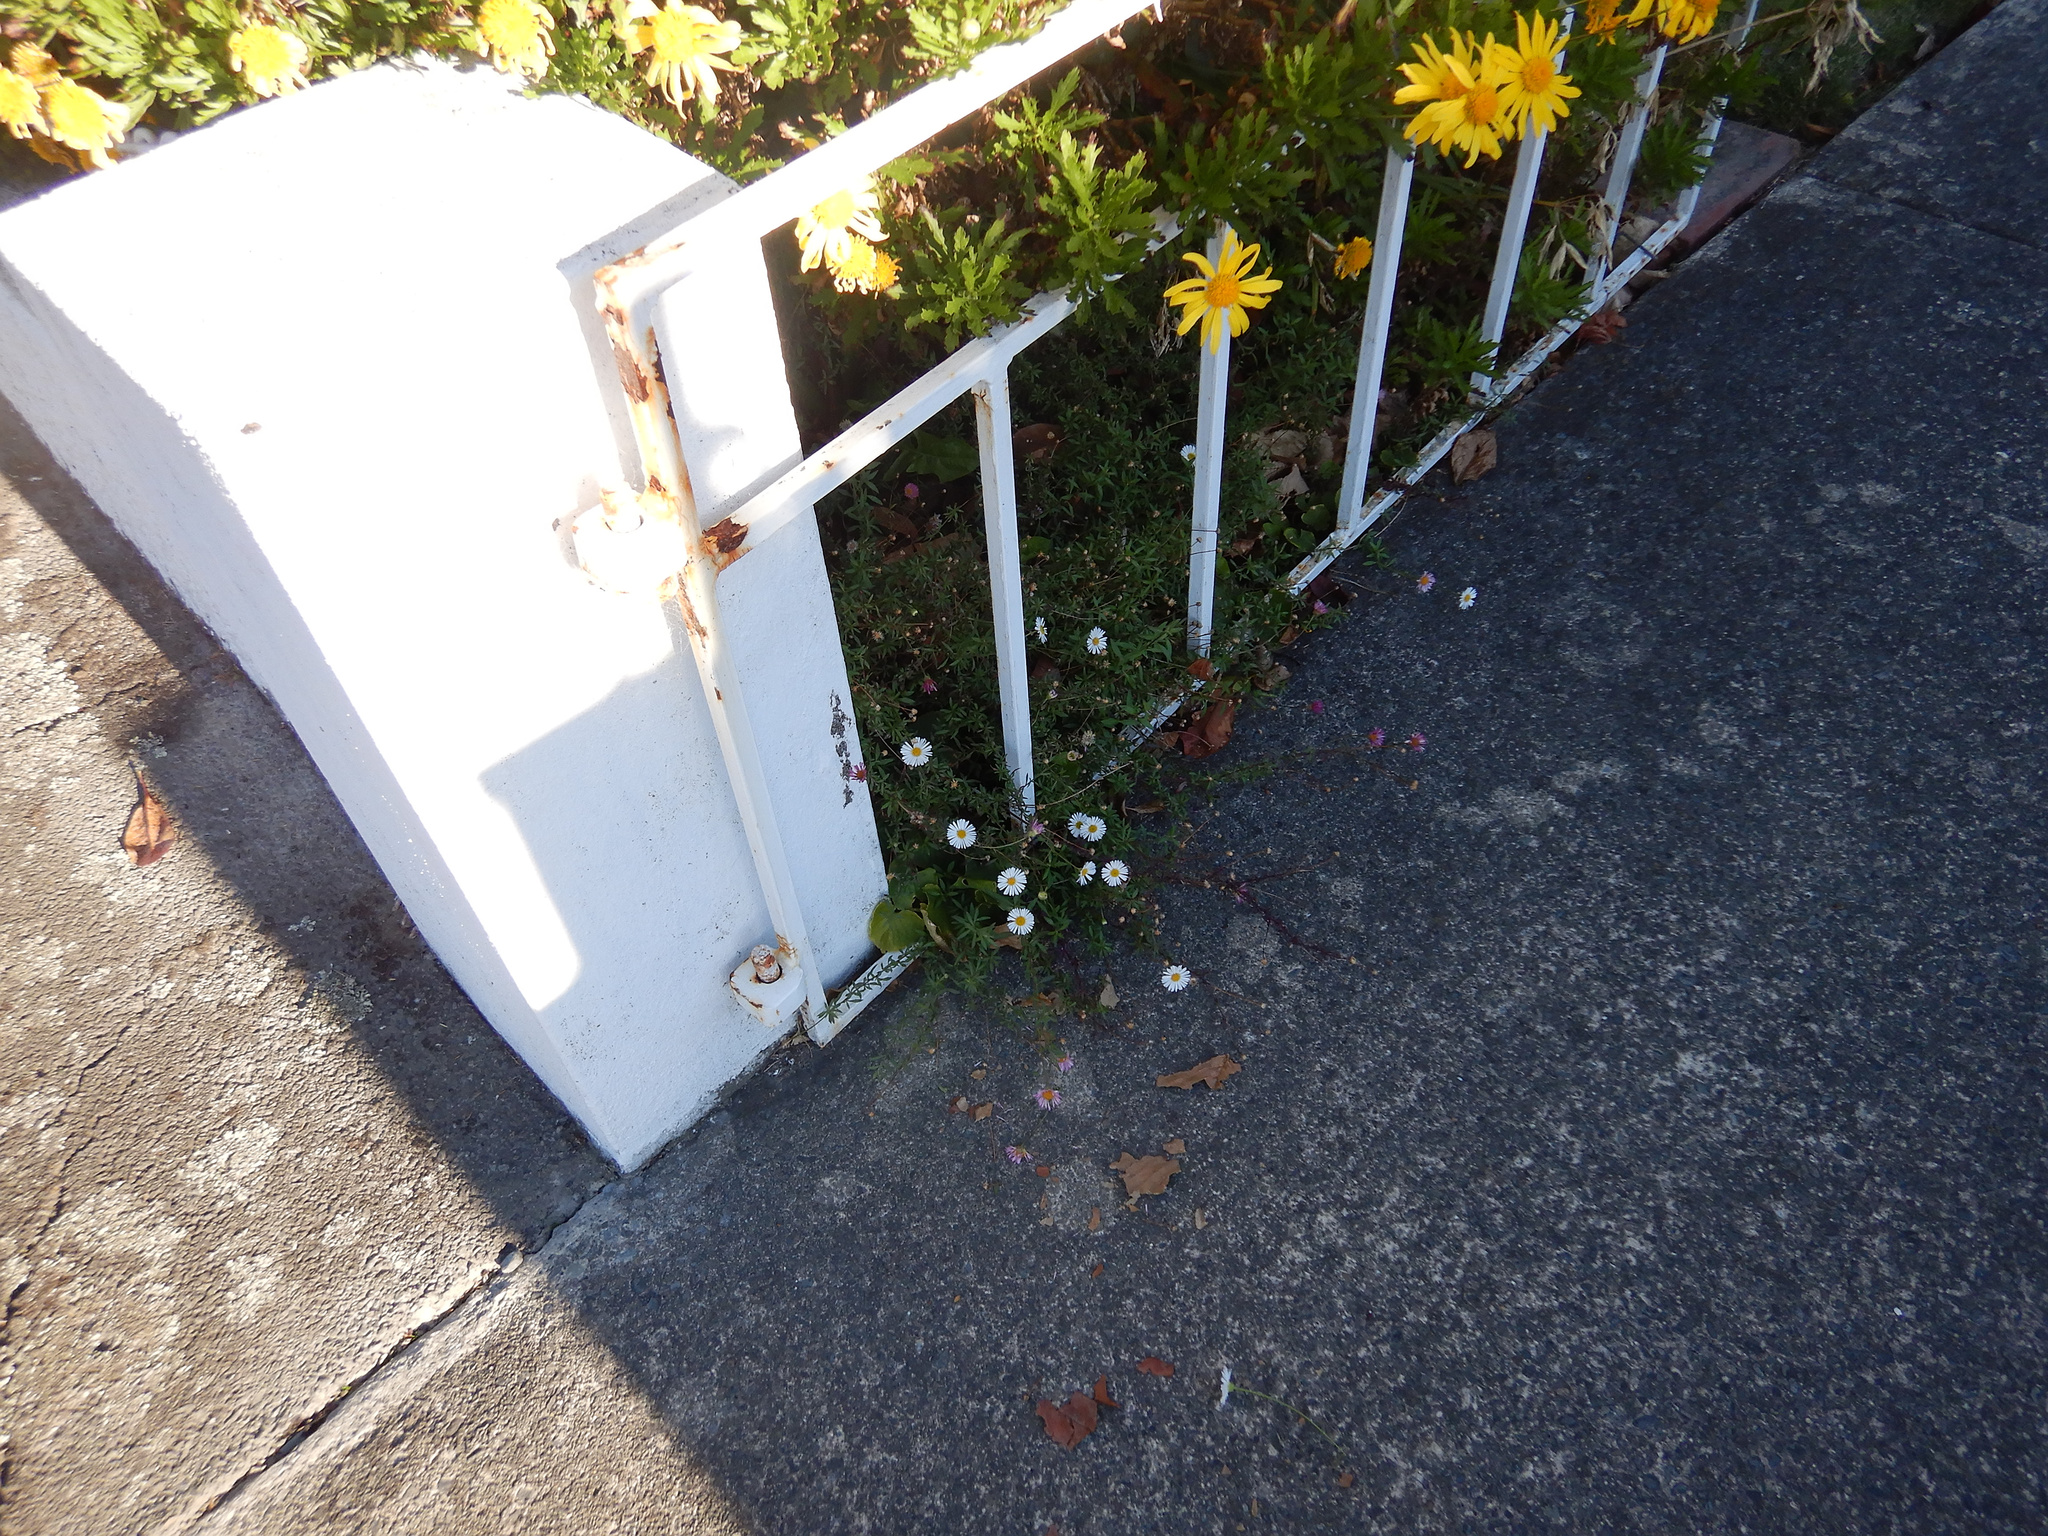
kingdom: Plantae
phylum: Tracheophyta
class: Magnoliopsida
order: Asterales
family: Asteraceae
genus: Erigeron
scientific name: Erigeron karvinskianus
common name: Mexican fleabane
